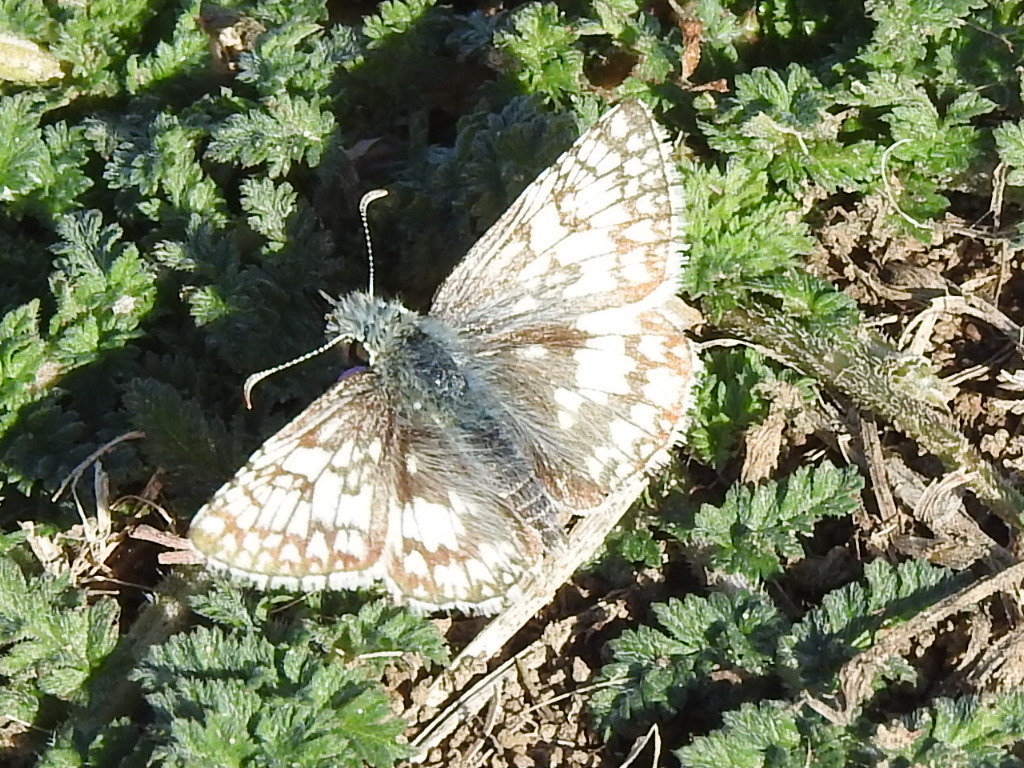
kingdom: Animalia
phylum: Arthropoda
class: Insecta
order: Lepidoptera
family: Hesperiidae
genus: Burnsius
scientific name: Burnsius
